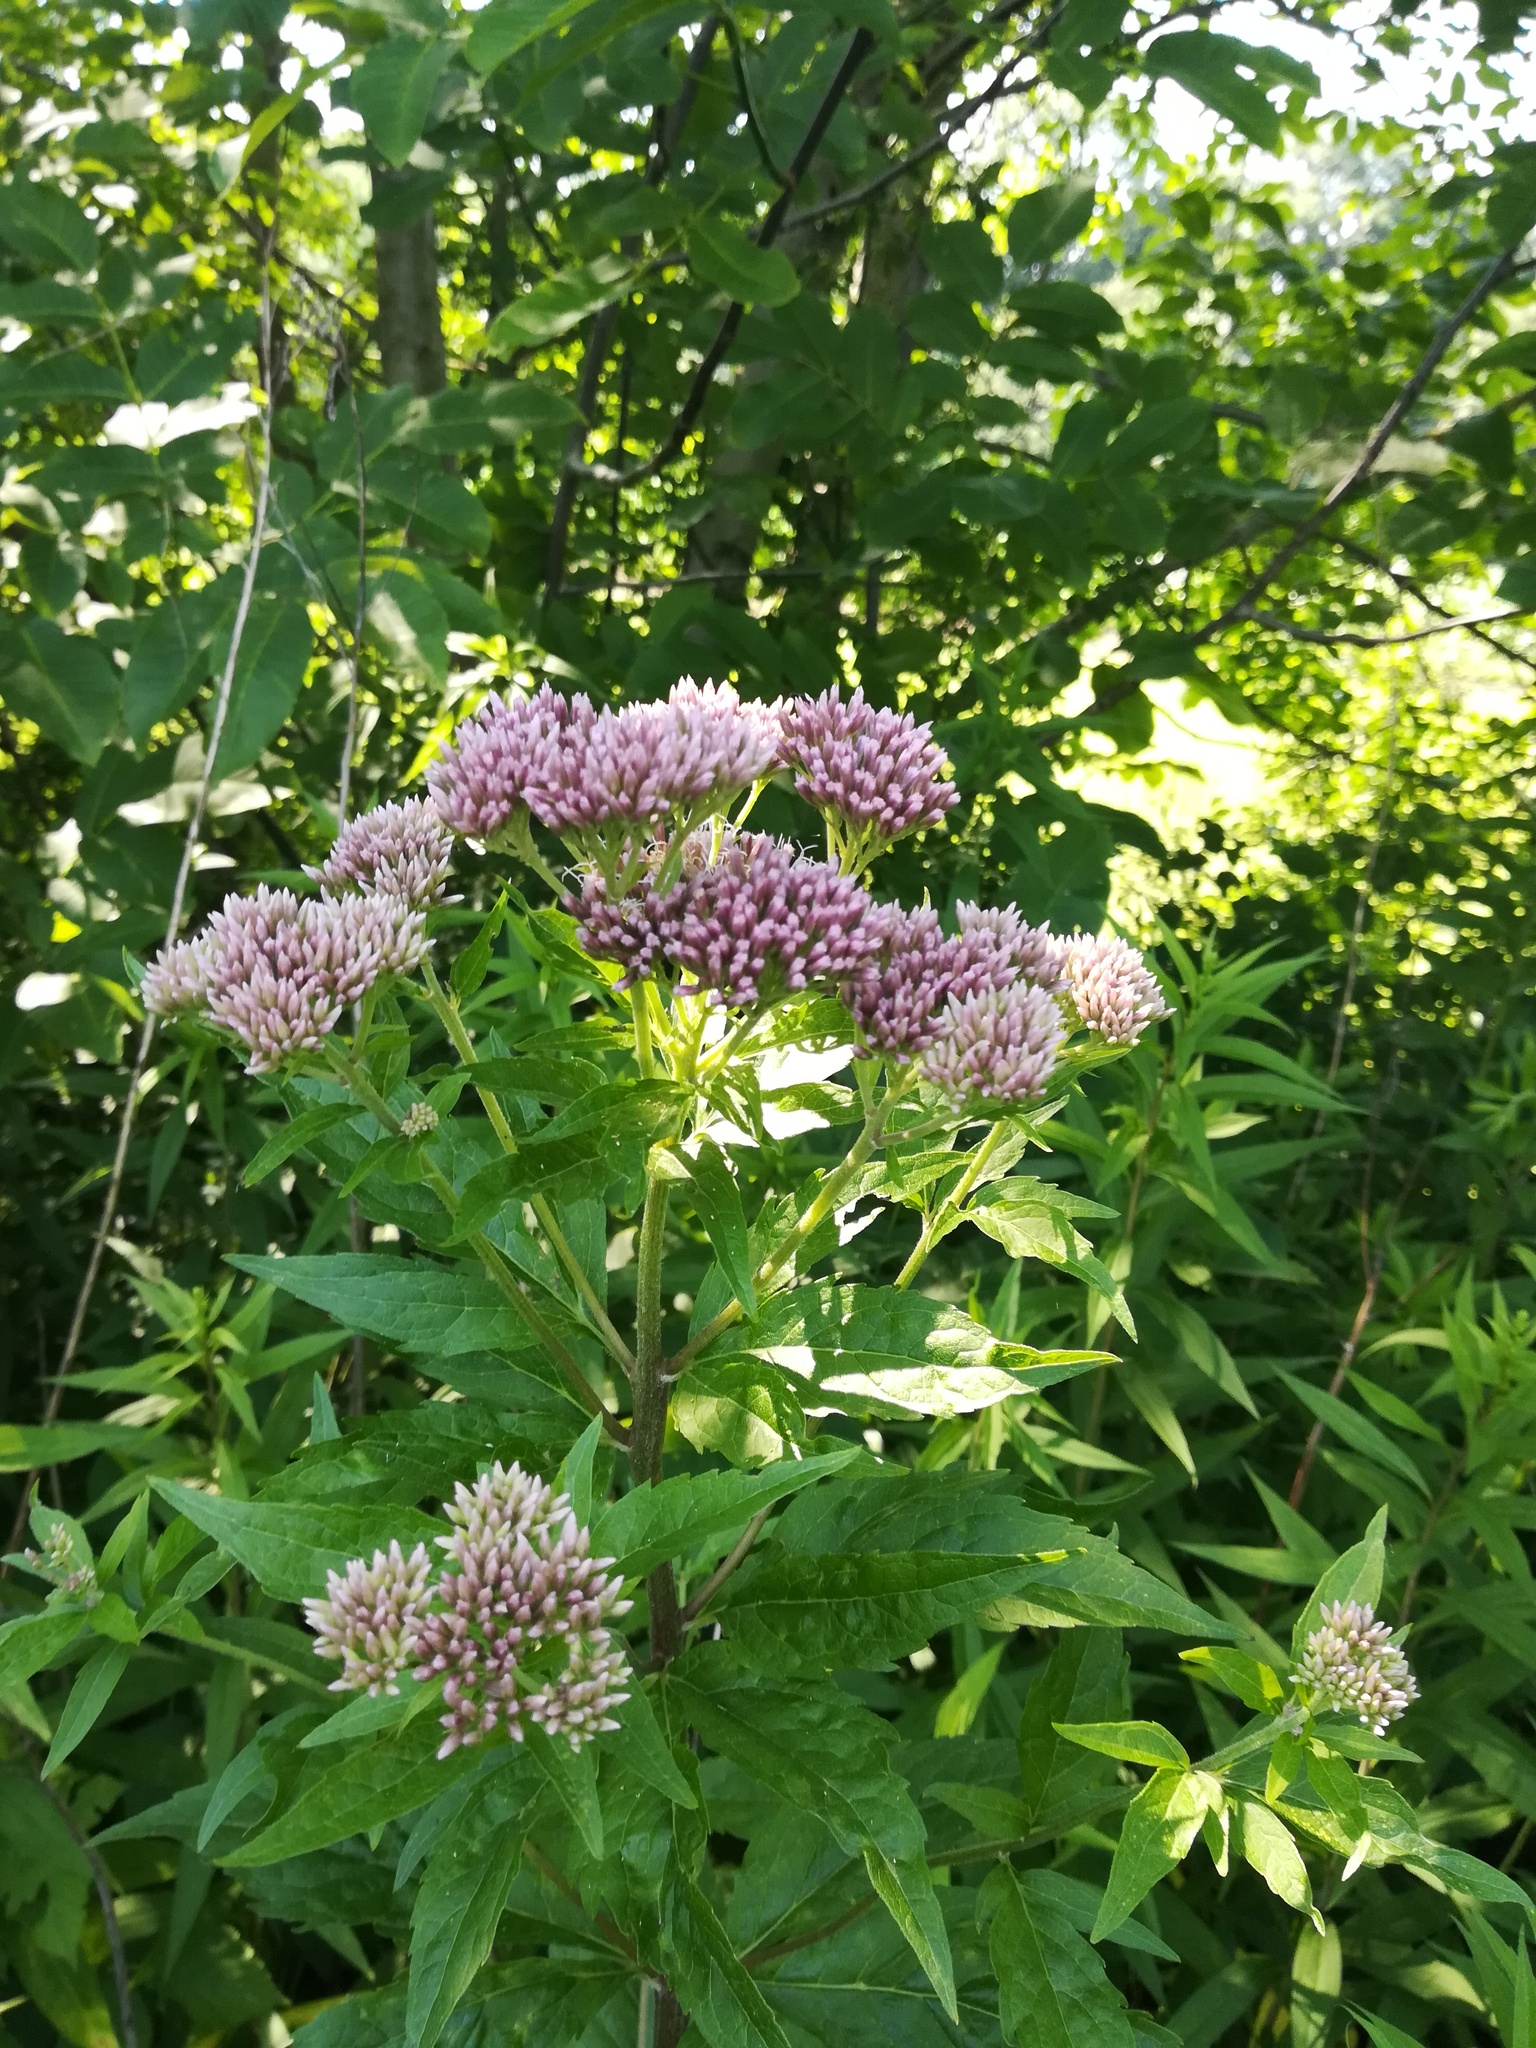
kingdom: Plantae
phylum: Tracheophyta
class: Magnoliopsida
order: Asterales
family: Asteraceae
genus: Eupatorium
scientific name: Eupatorium cannabinum
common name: Hemp-agrimony
